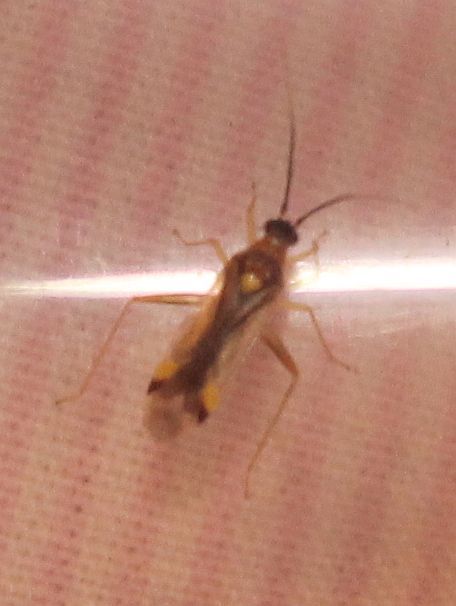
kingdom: Animalia
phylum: Arthropoda
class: Insecta
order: Hemiptera
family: Miridae
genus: Campyloneura
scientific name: Campyloneura virgula
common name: Predatory bug
